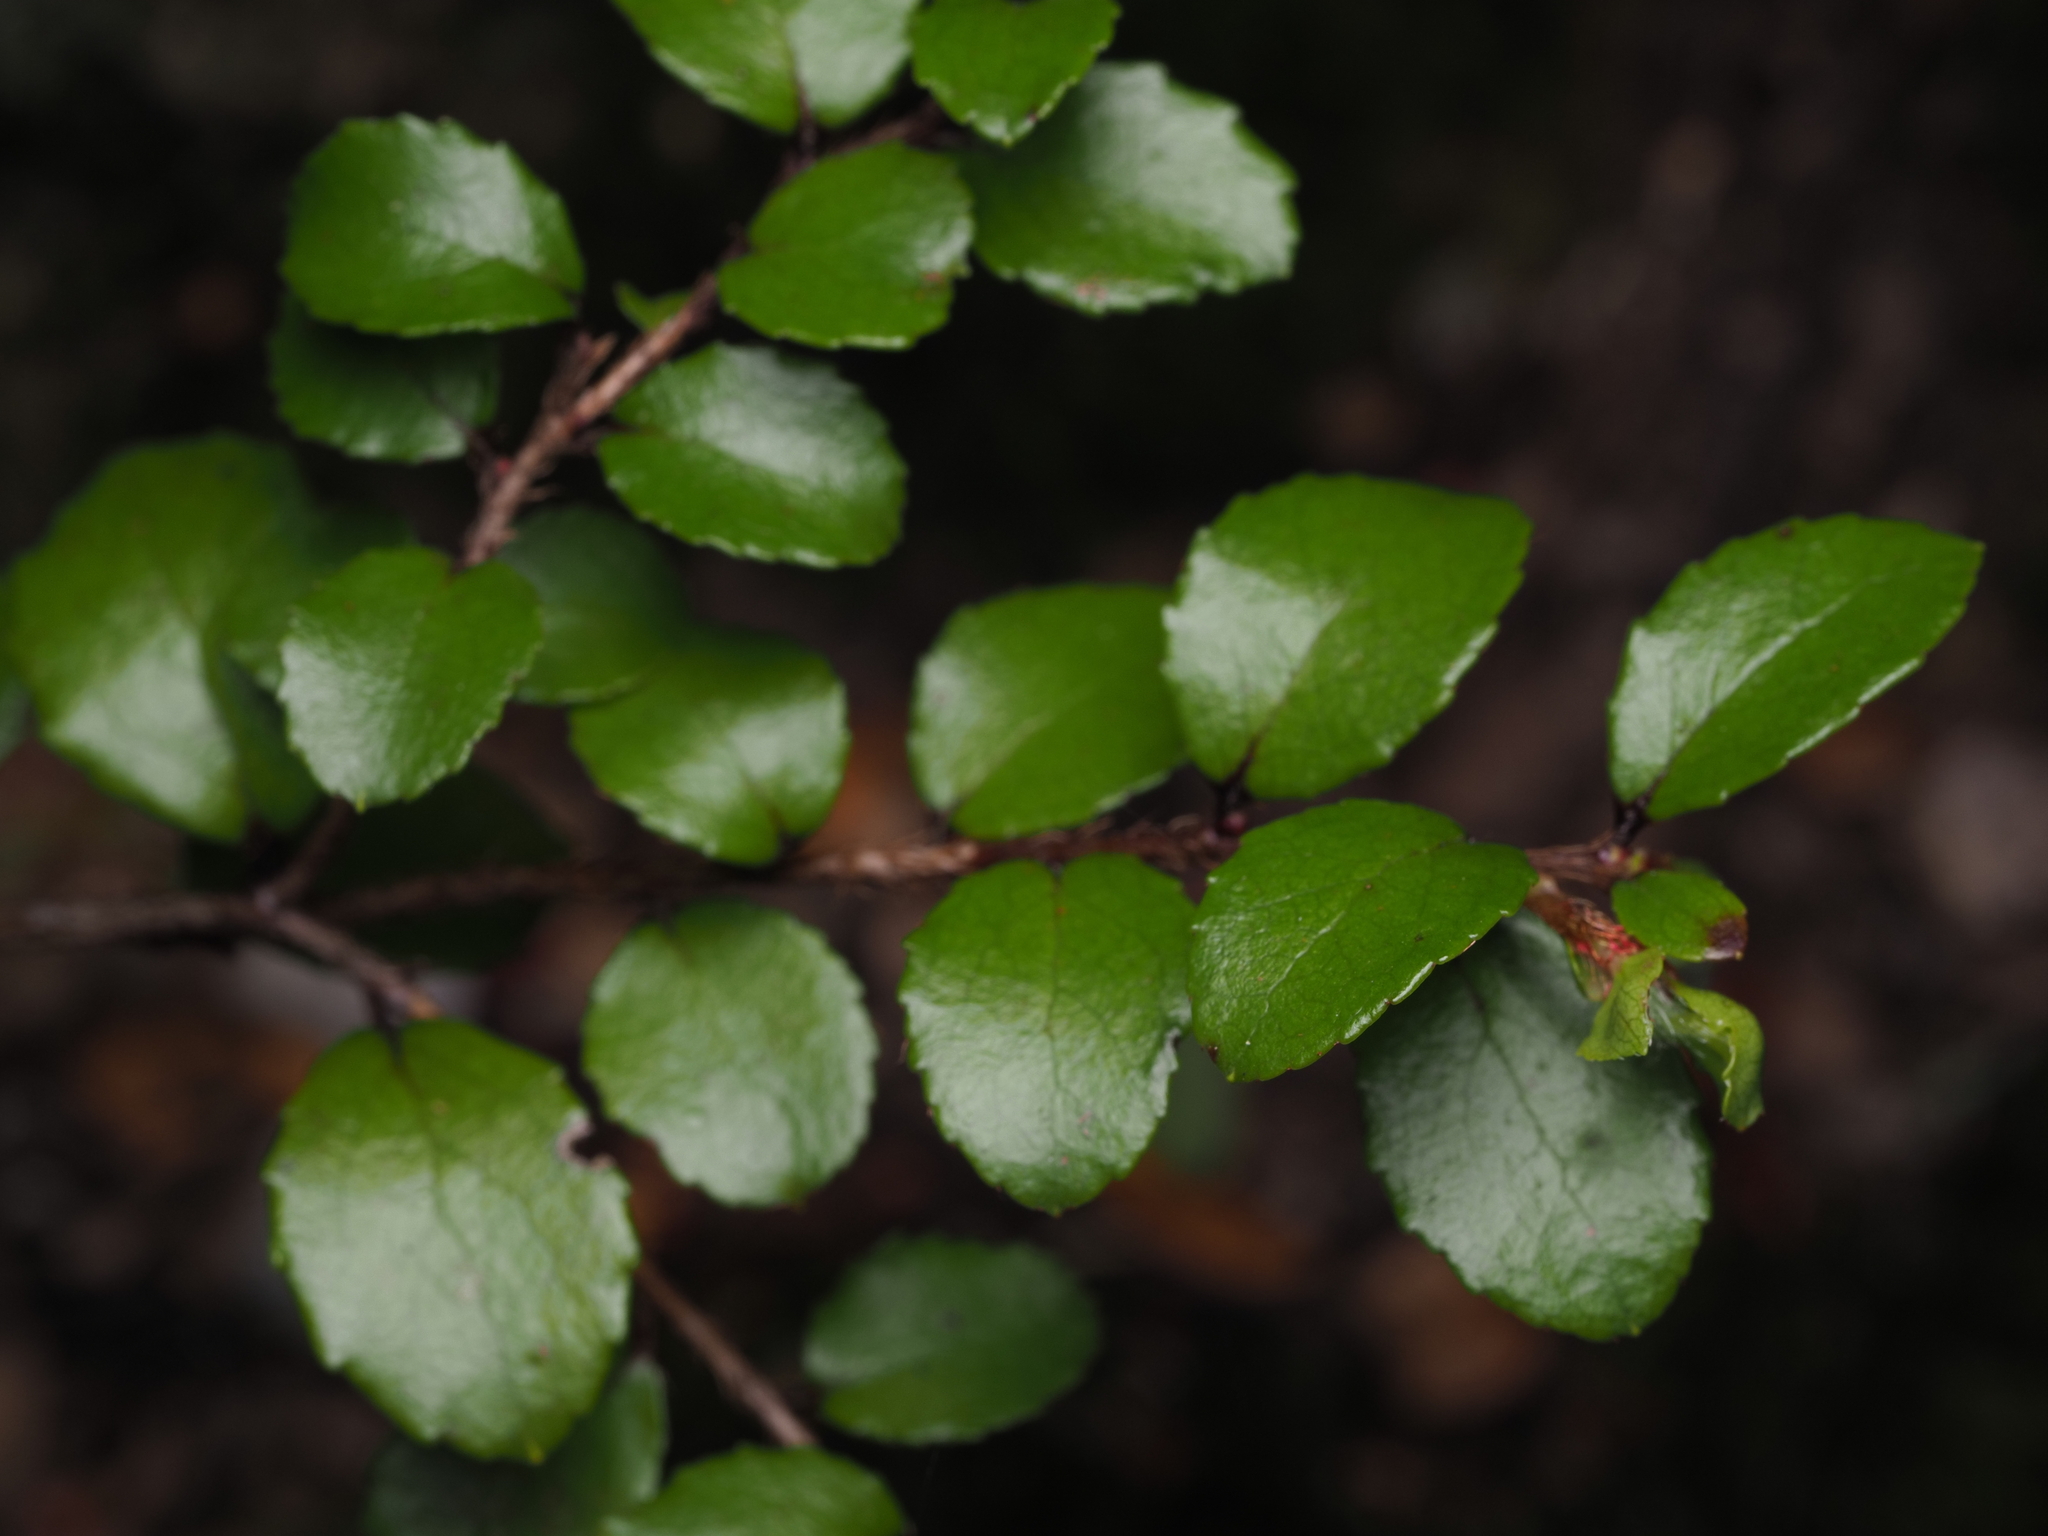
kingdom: Plantae
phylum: Tracheophyta
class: Magnoliopsida
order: Ericales
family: Ericaceae
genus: Gaultheria
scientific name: Gaultheria antipoda
